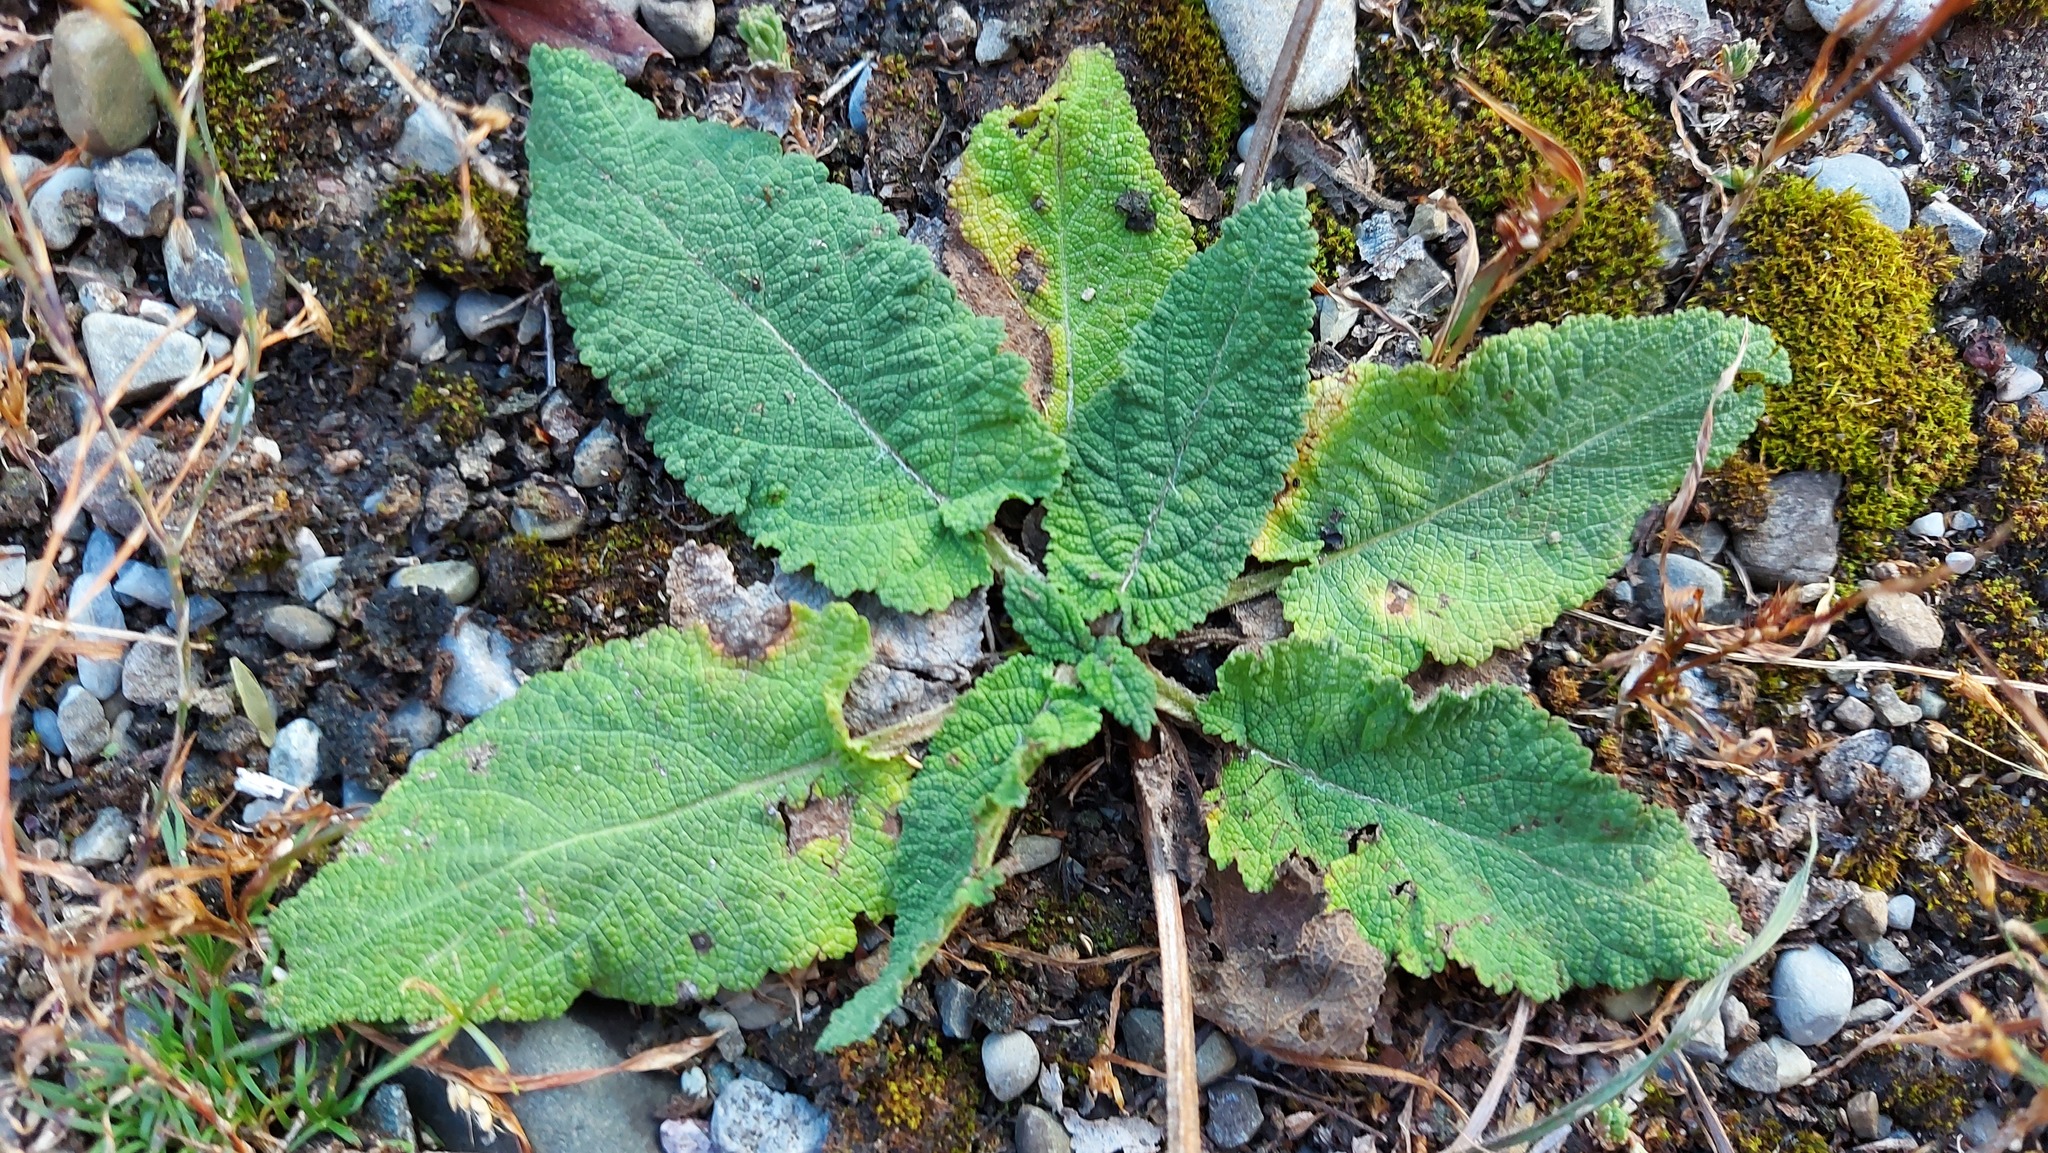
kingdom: Plantae
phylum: Tracheophyta
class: Magnoliopsida
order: Lamiales
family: Lamiaceae
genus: Salvia
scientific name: Salvia pratensis
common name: Meadow sage
